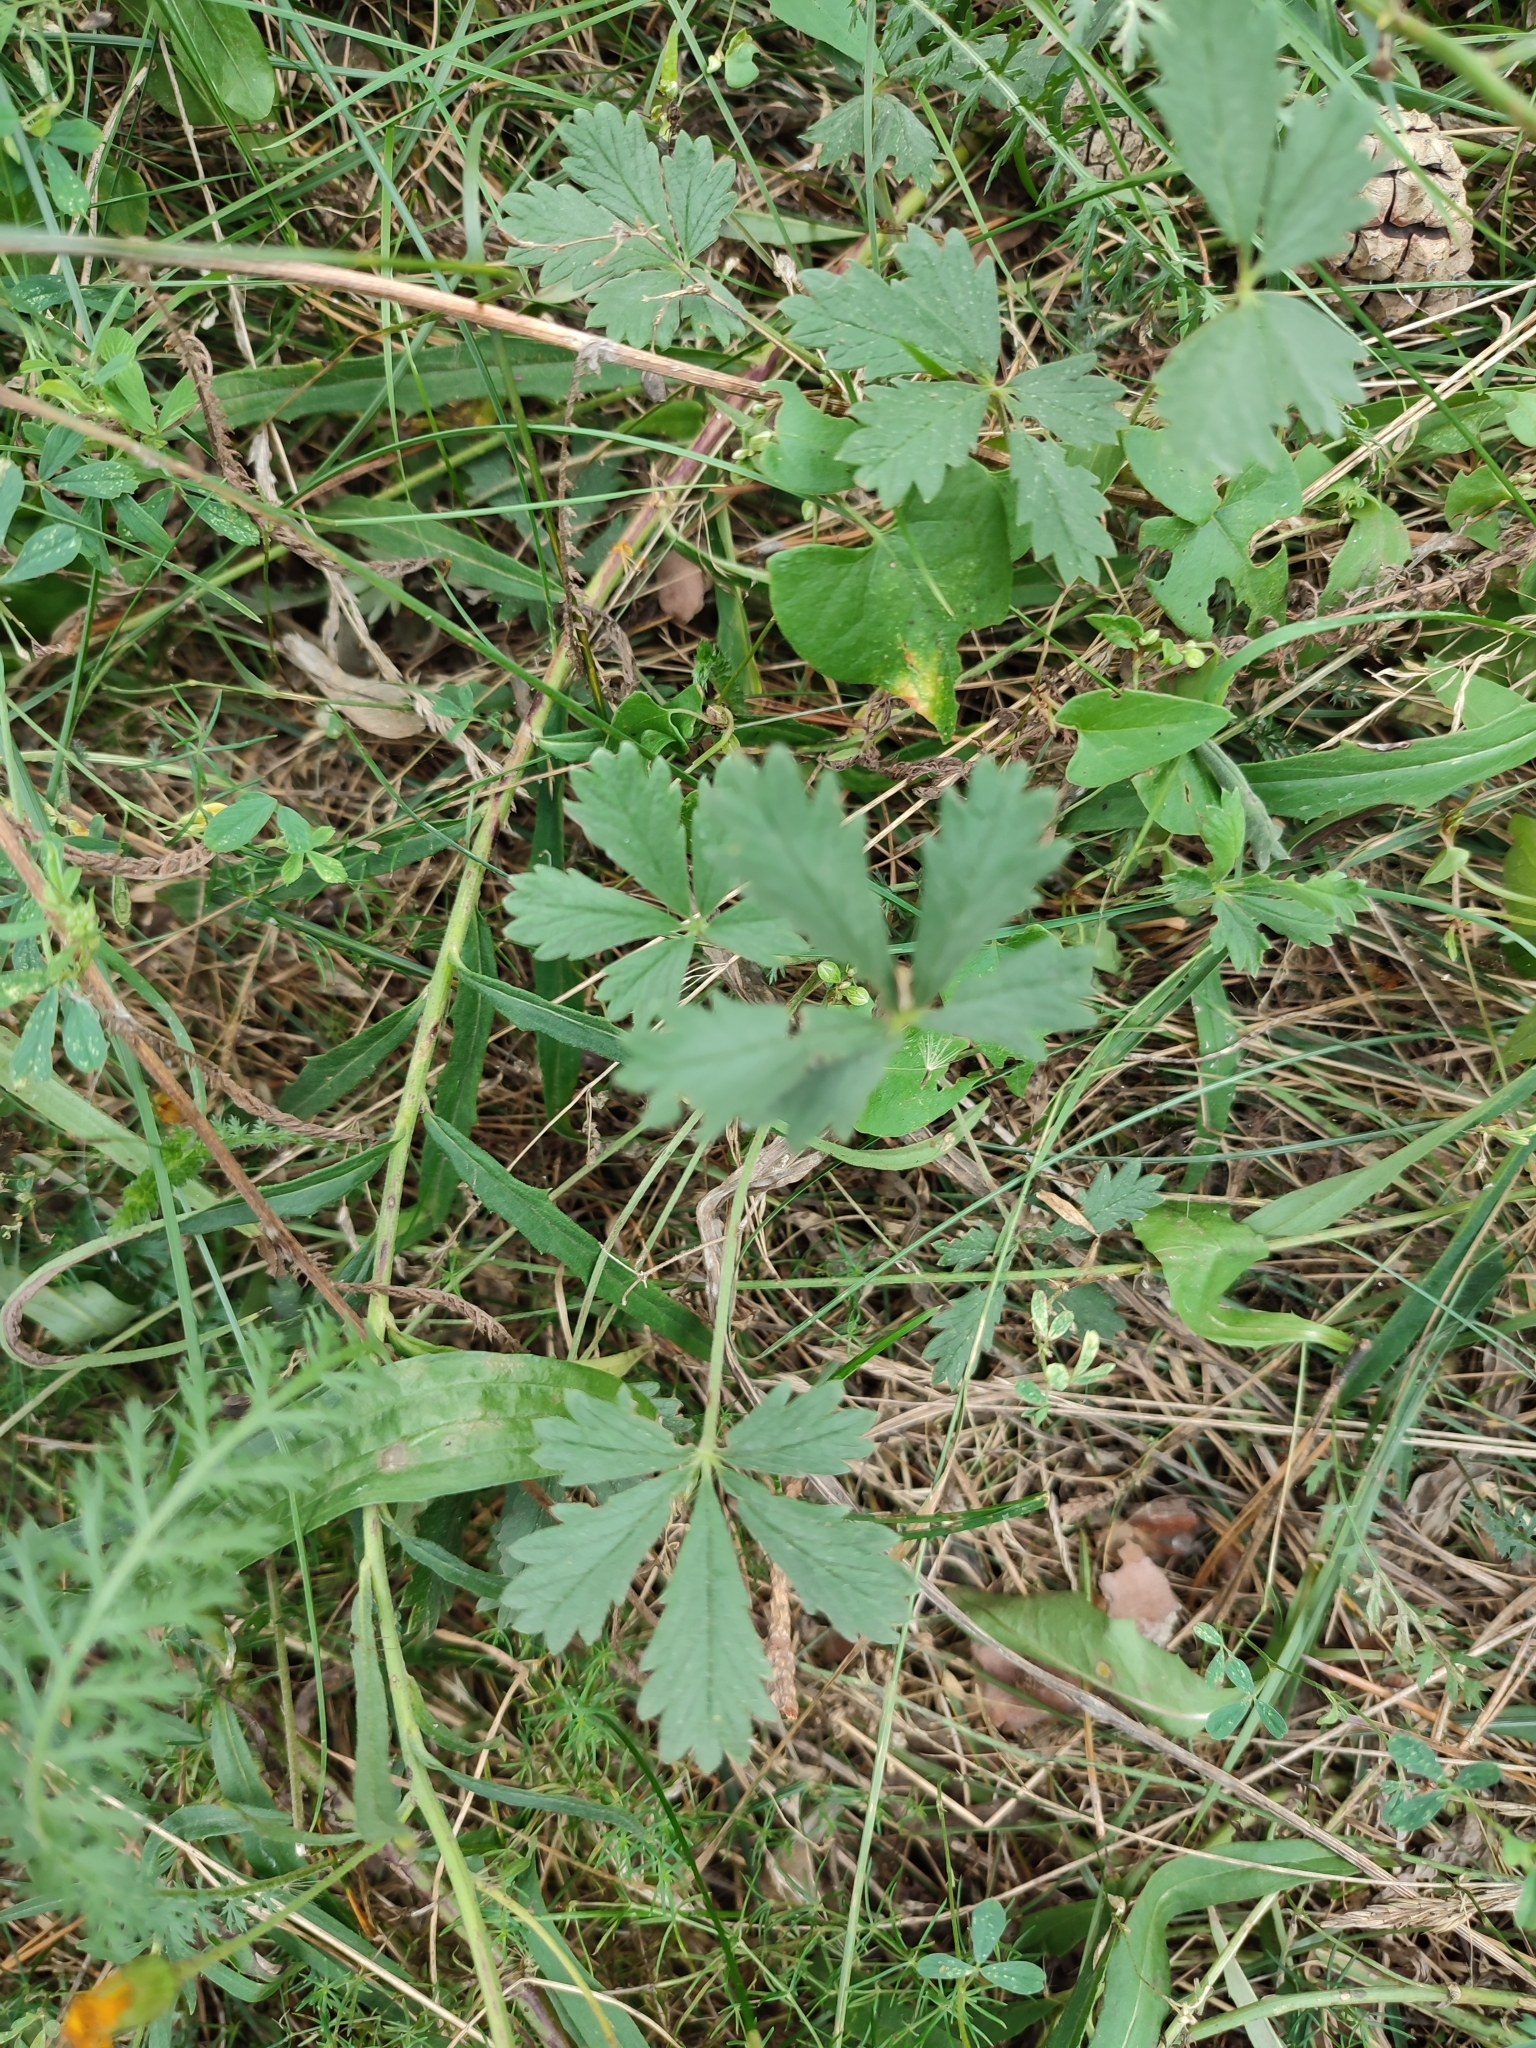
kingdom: Plantae
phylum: Tracheophyta
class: Magnoliopsida
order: Rosales
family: Rosaceae
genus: Potentilla
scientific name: Potentilla
